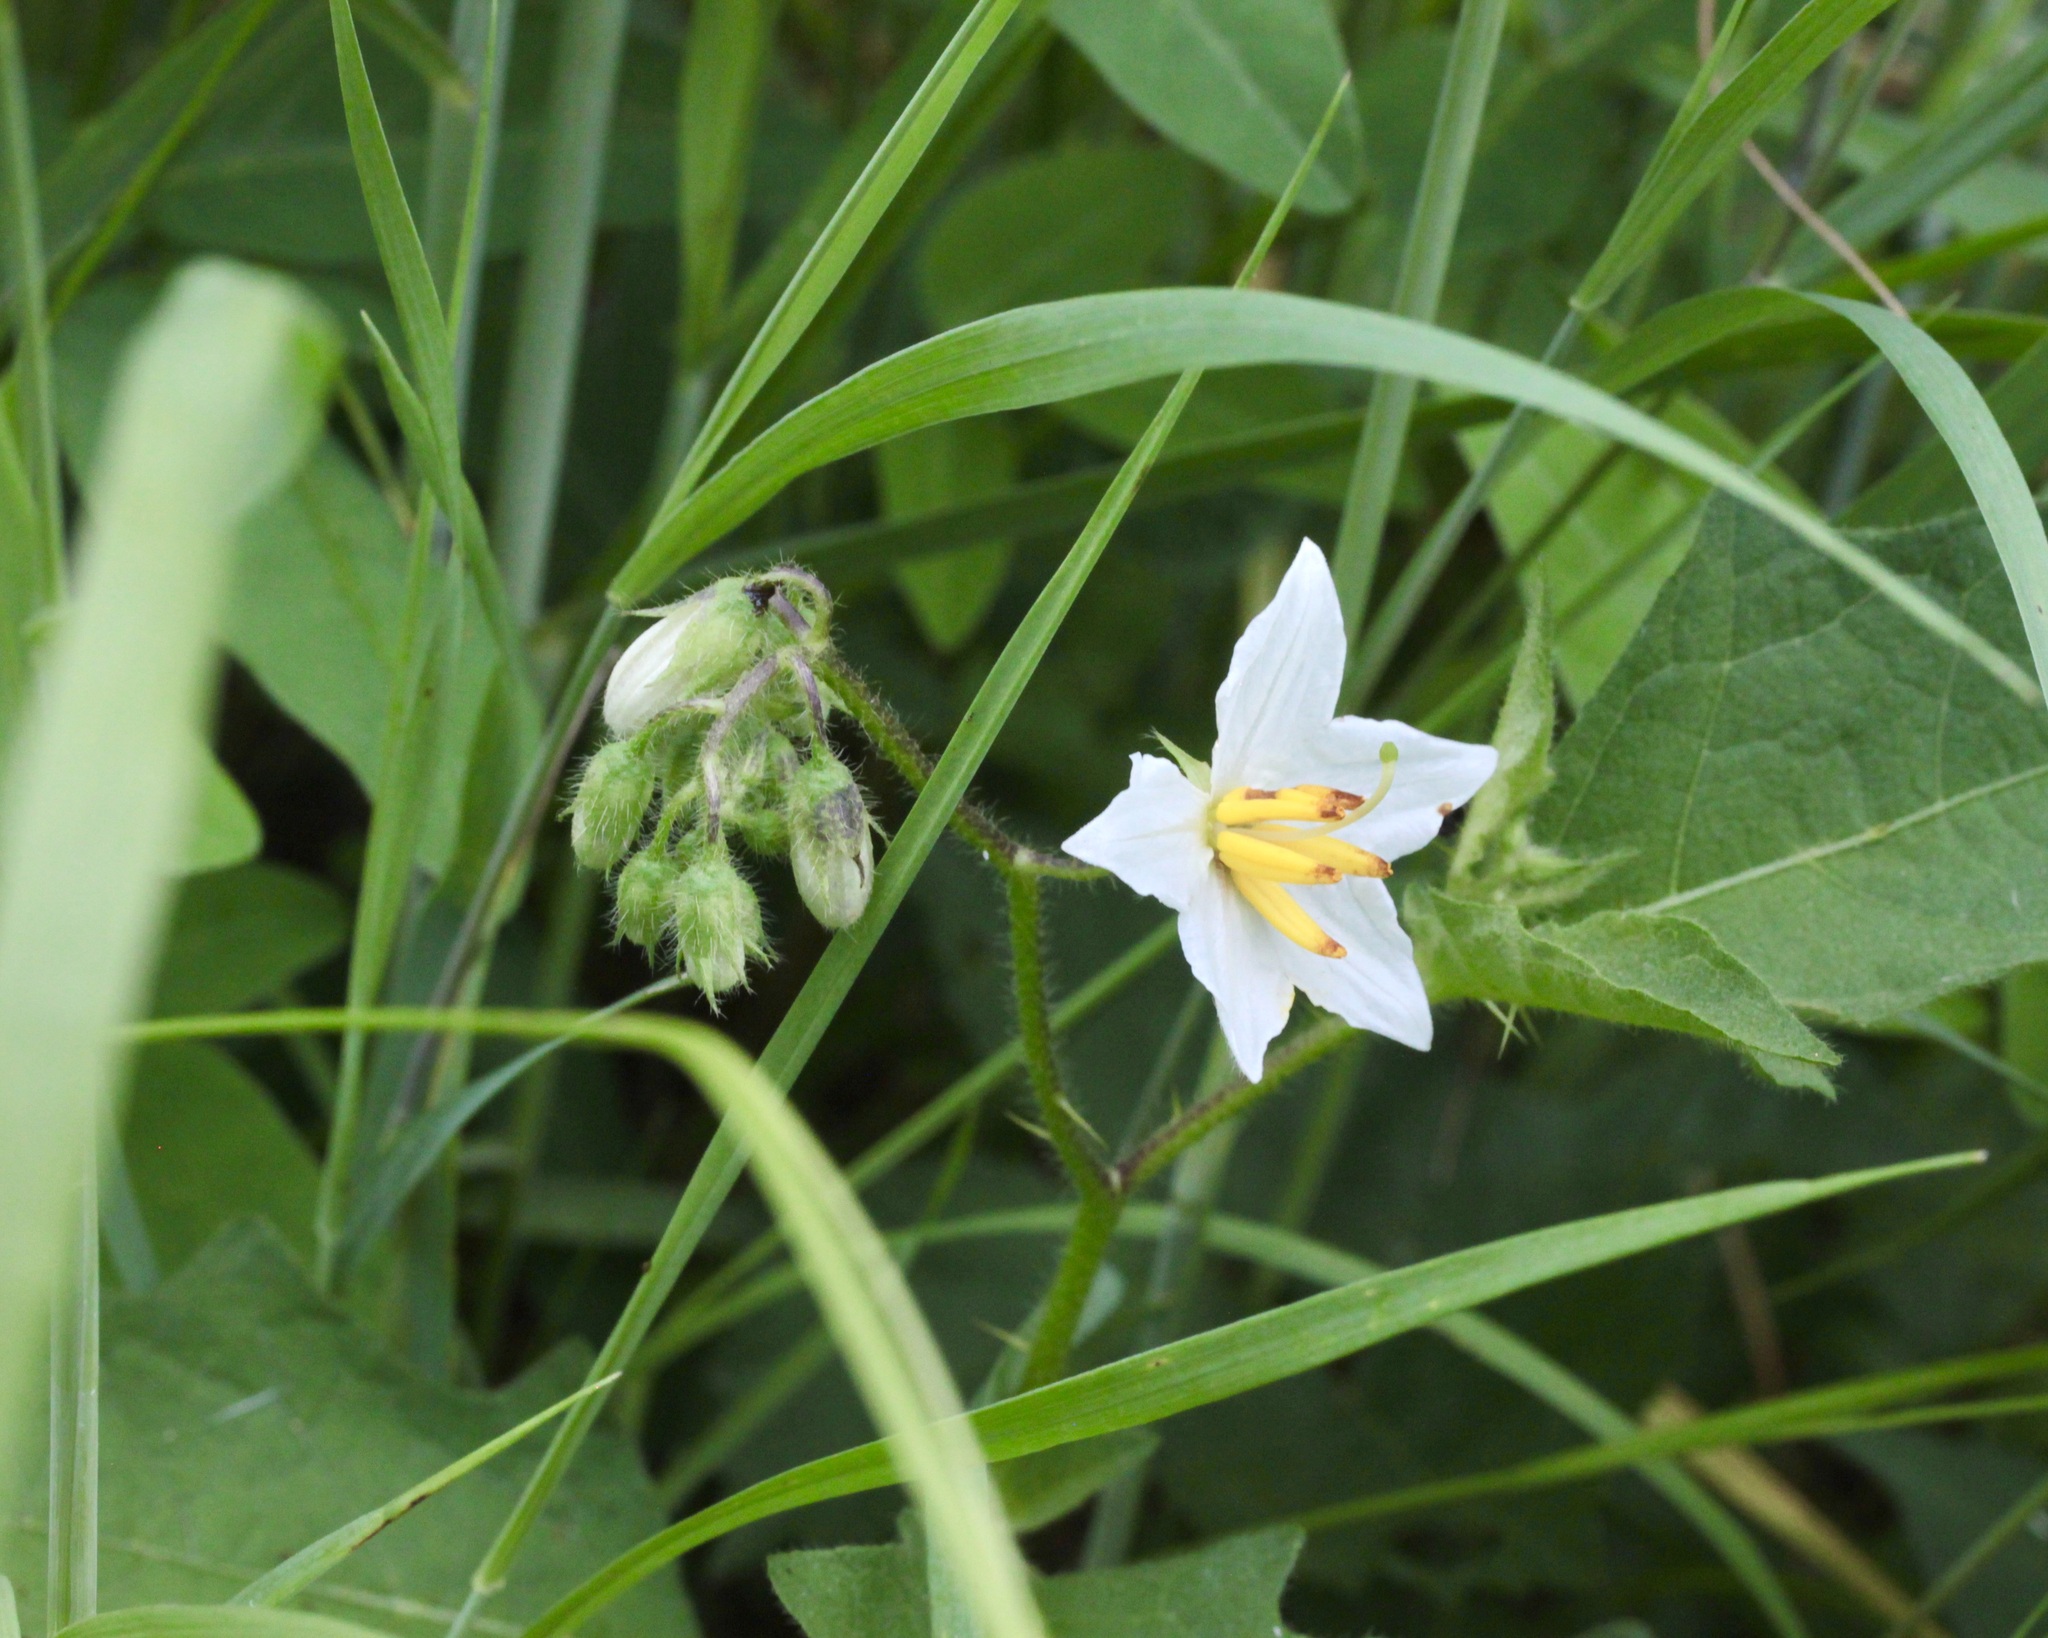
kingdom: Plantae
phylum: Tracheophyta
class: Magnoliopsida
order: Solanales
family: Solanaceae
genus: Solanum
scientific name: Solanum carolinense
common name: Horse-nettle
